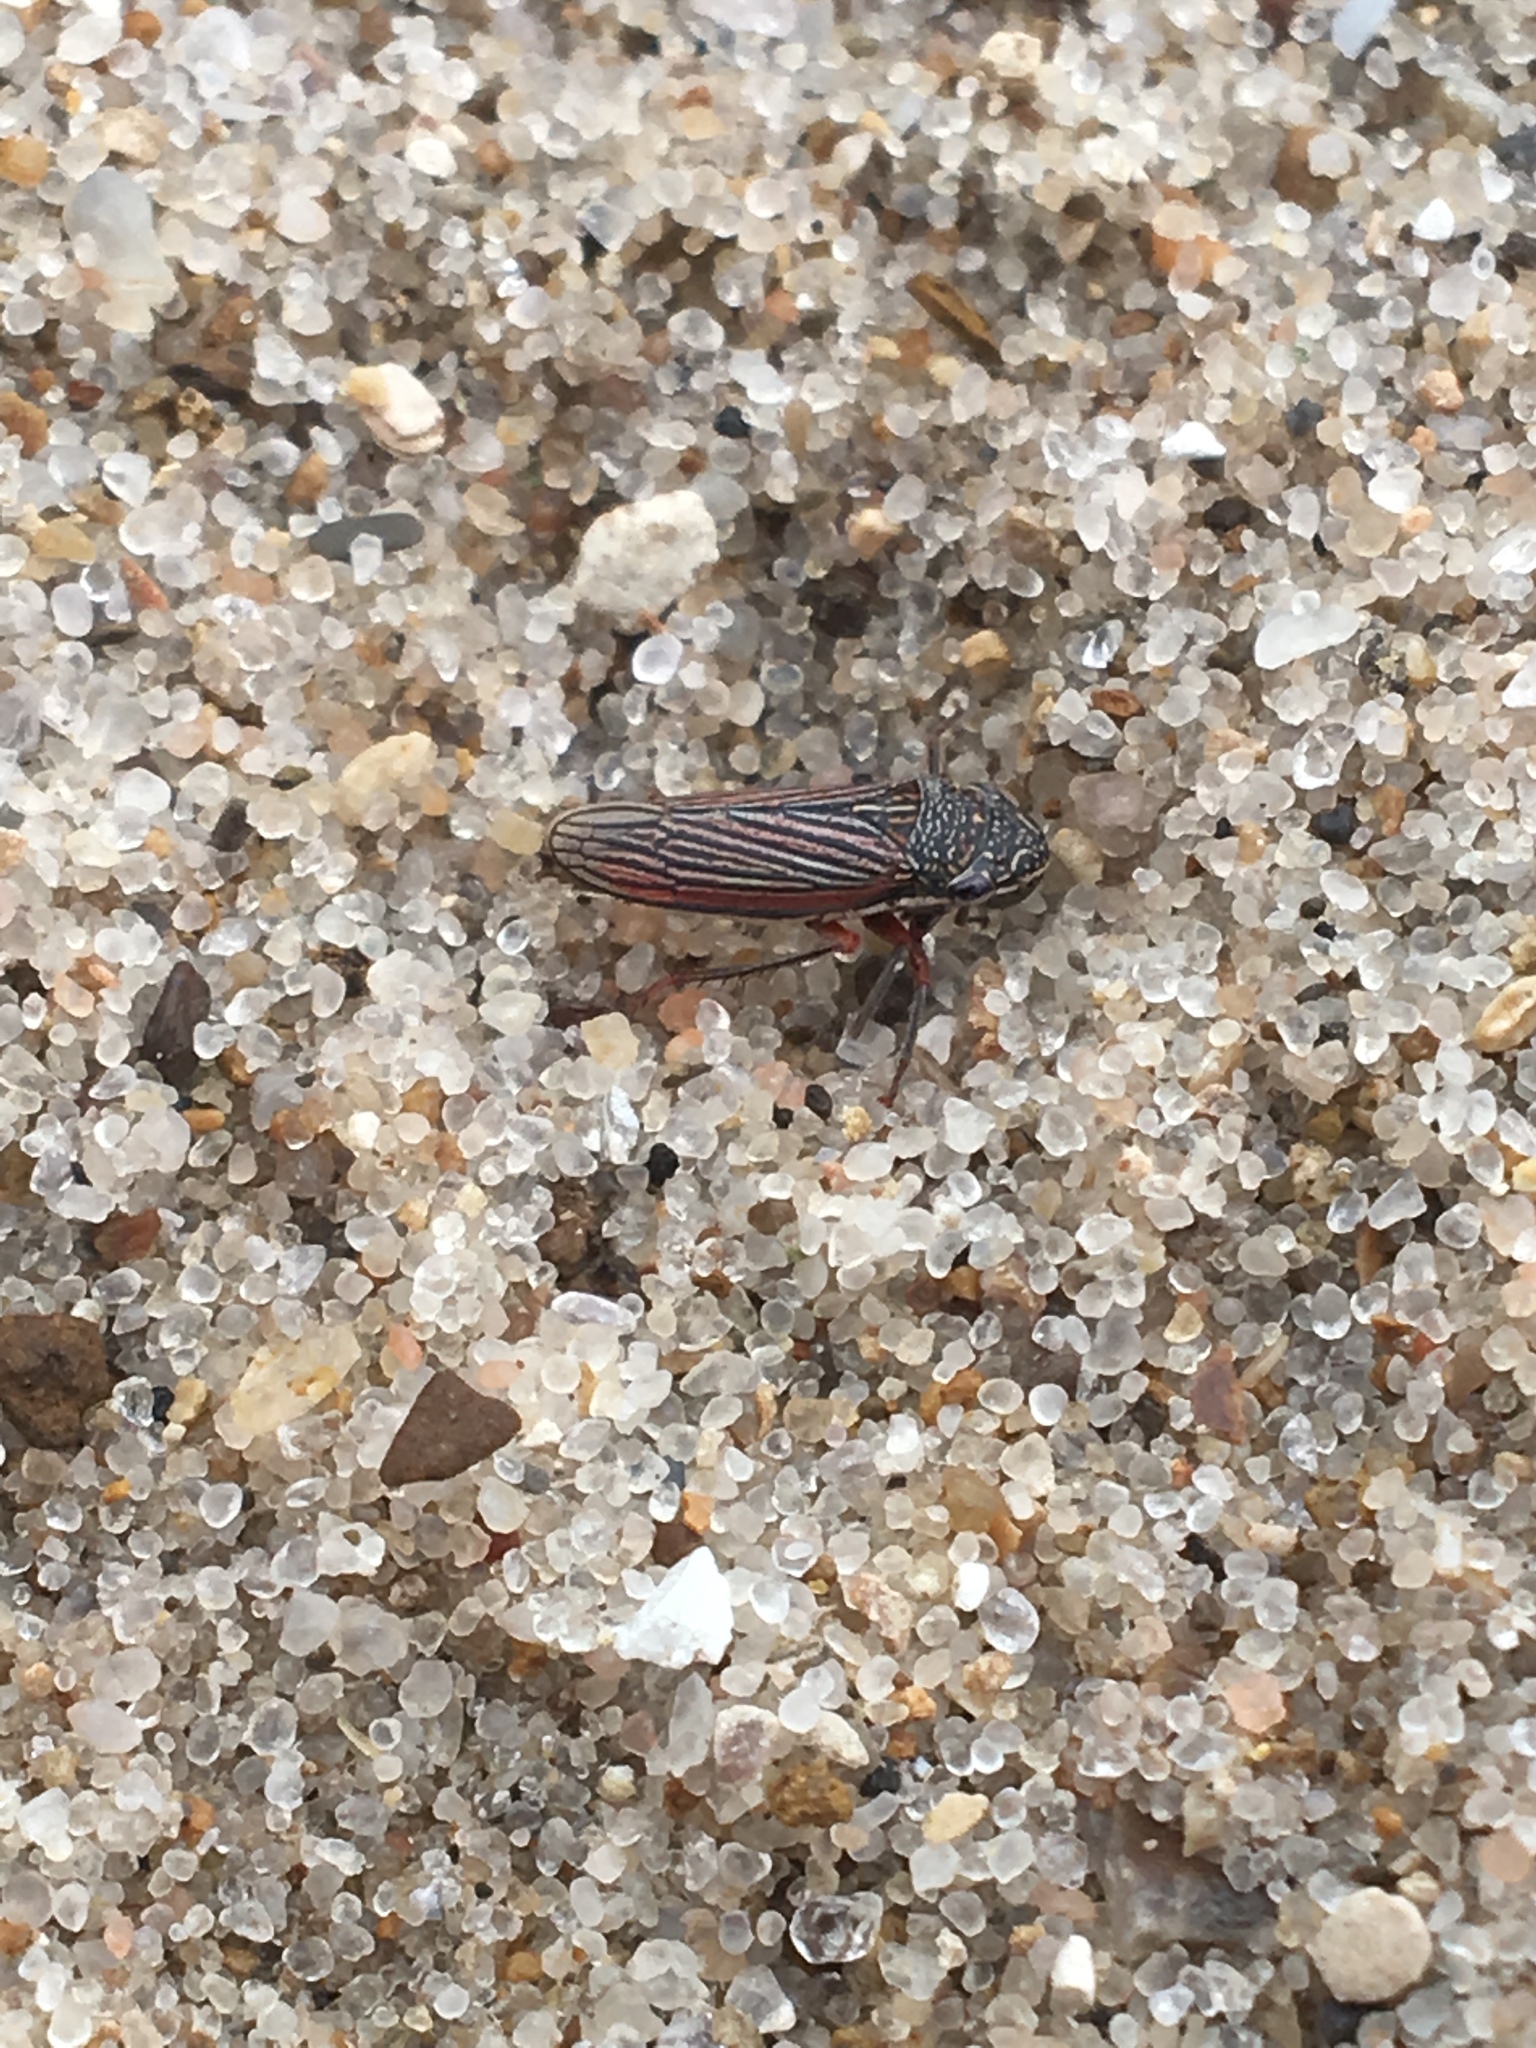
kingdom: Animalia
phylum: Arthropoda
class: Insecta
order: Hemiptera
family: Cicadellidae
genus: Cuerna
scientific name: Cuerna costalis
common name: Lateral-lined sharpshooter
